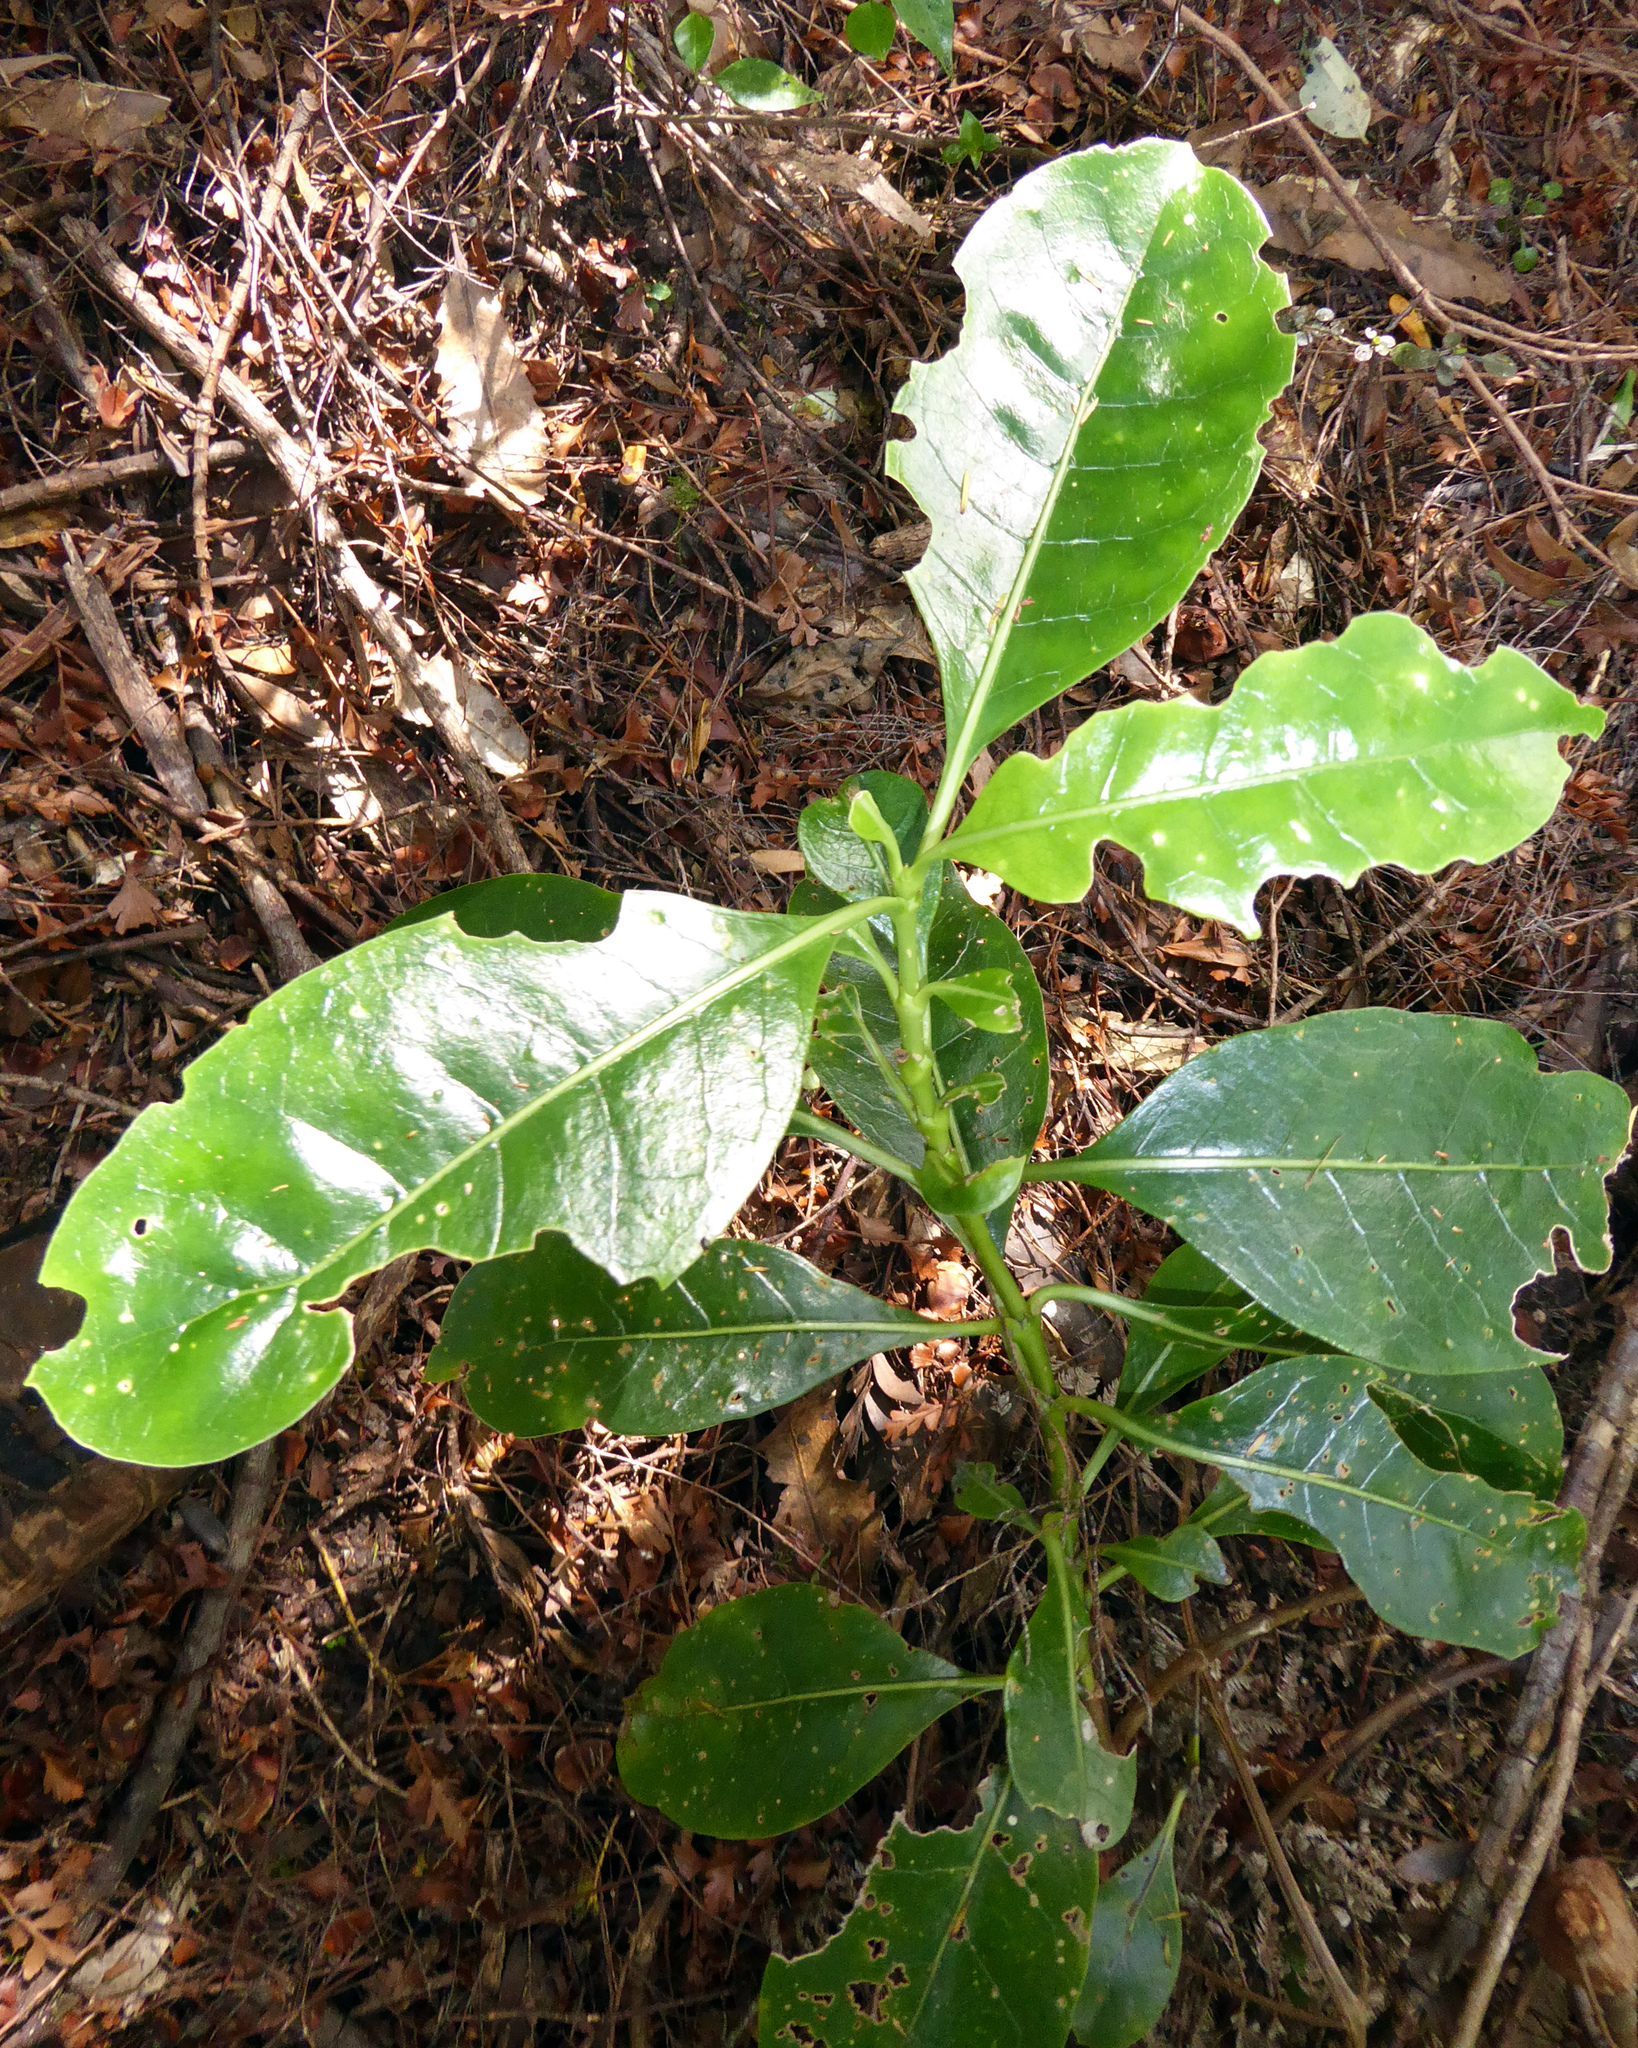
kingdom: Plantae
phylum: Tracheophyta
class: Magnoliopsida
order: Gentianales
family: Rubiaceae
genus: Coprosma
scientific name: Coprosma lucida
